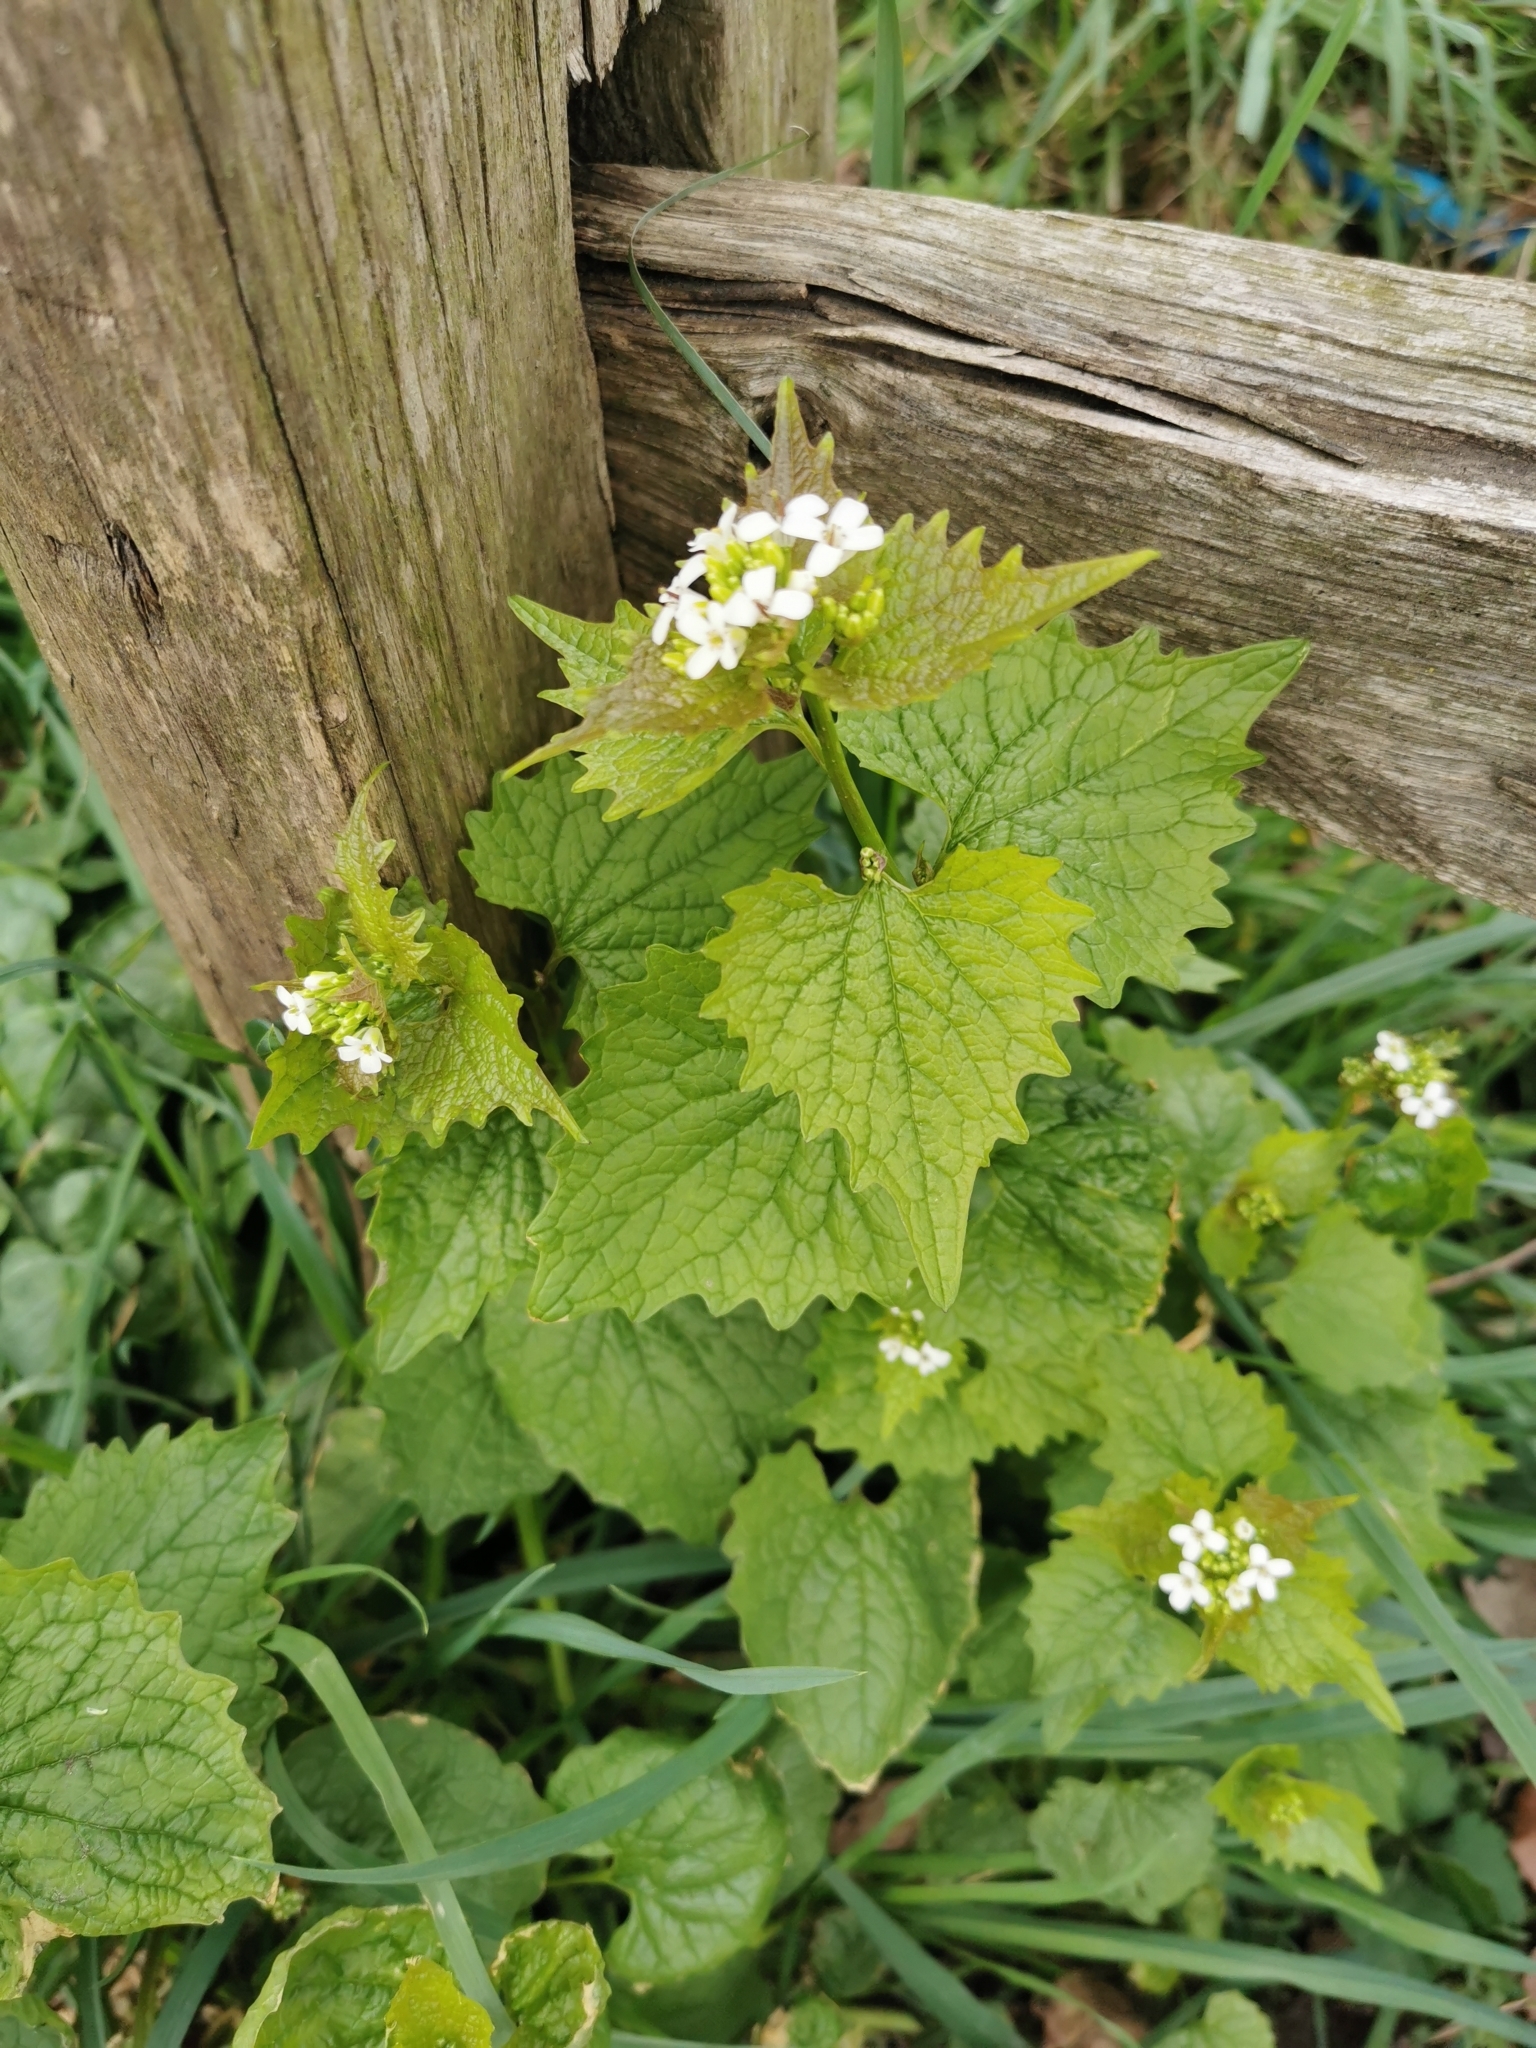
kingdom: Plantae
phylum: Tracheophyta
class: Magnoliopsida
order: Brassicales
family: Brassicaceae
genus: Alliaria
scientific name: Alliaria petiolata
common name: Garlic mustard
